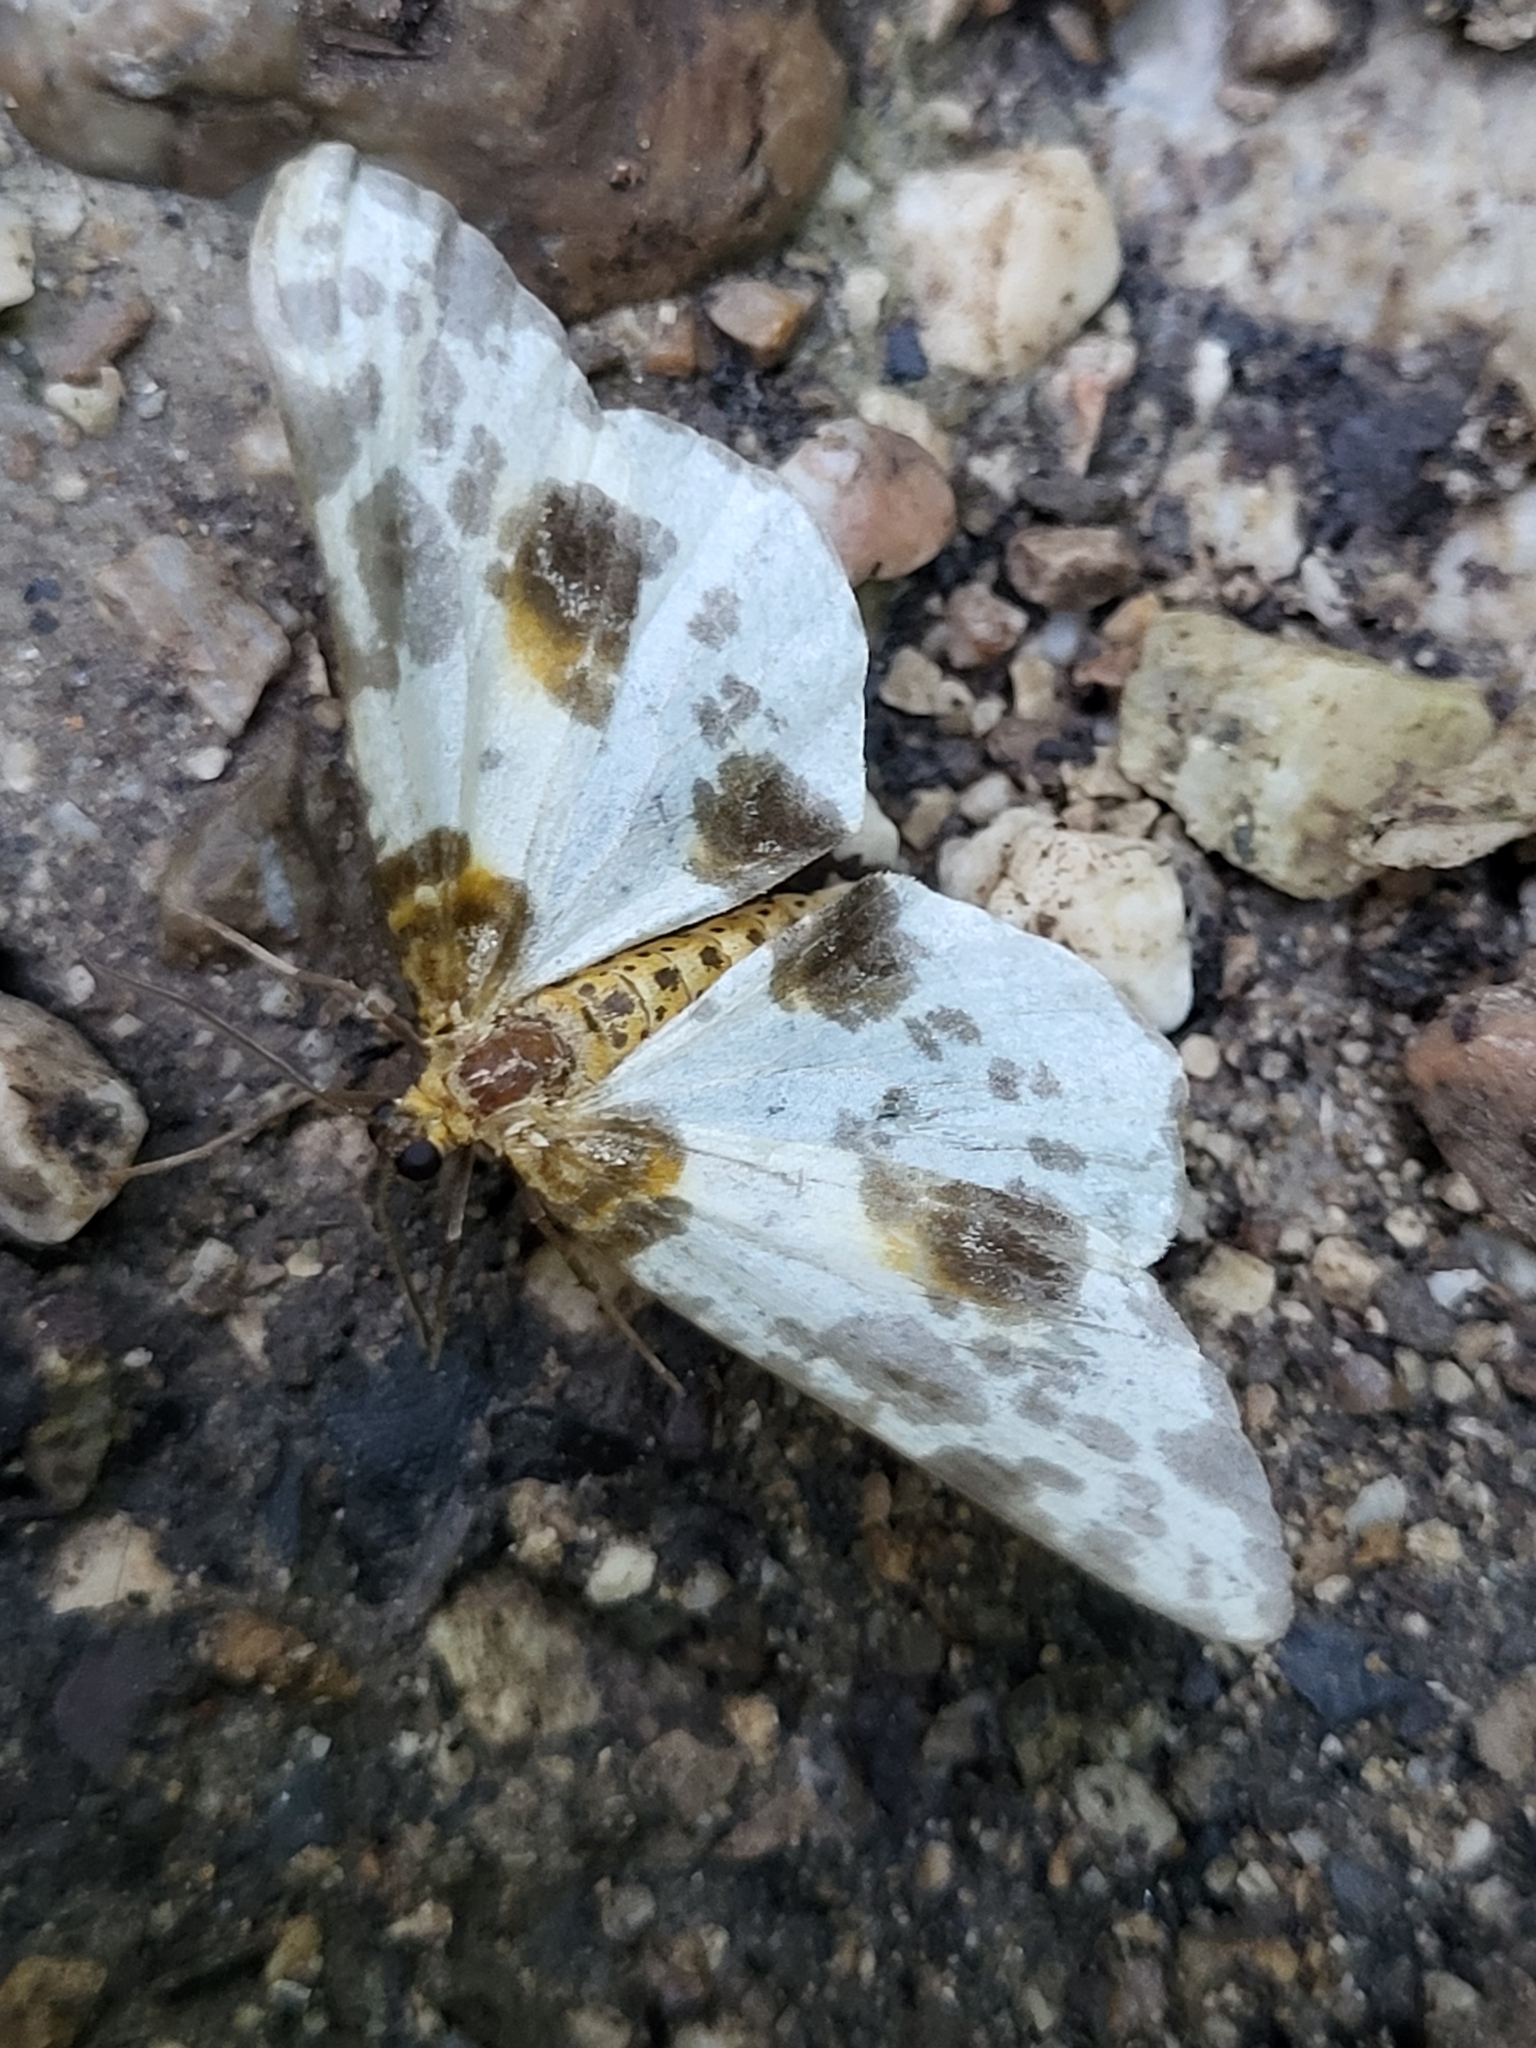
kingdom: Animalia
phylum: Arthropoda
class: Insecta
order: Lepidoptera
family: Geometridae
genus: Abraxas
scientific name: Abraxas sylvata
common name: Clouded magpie
